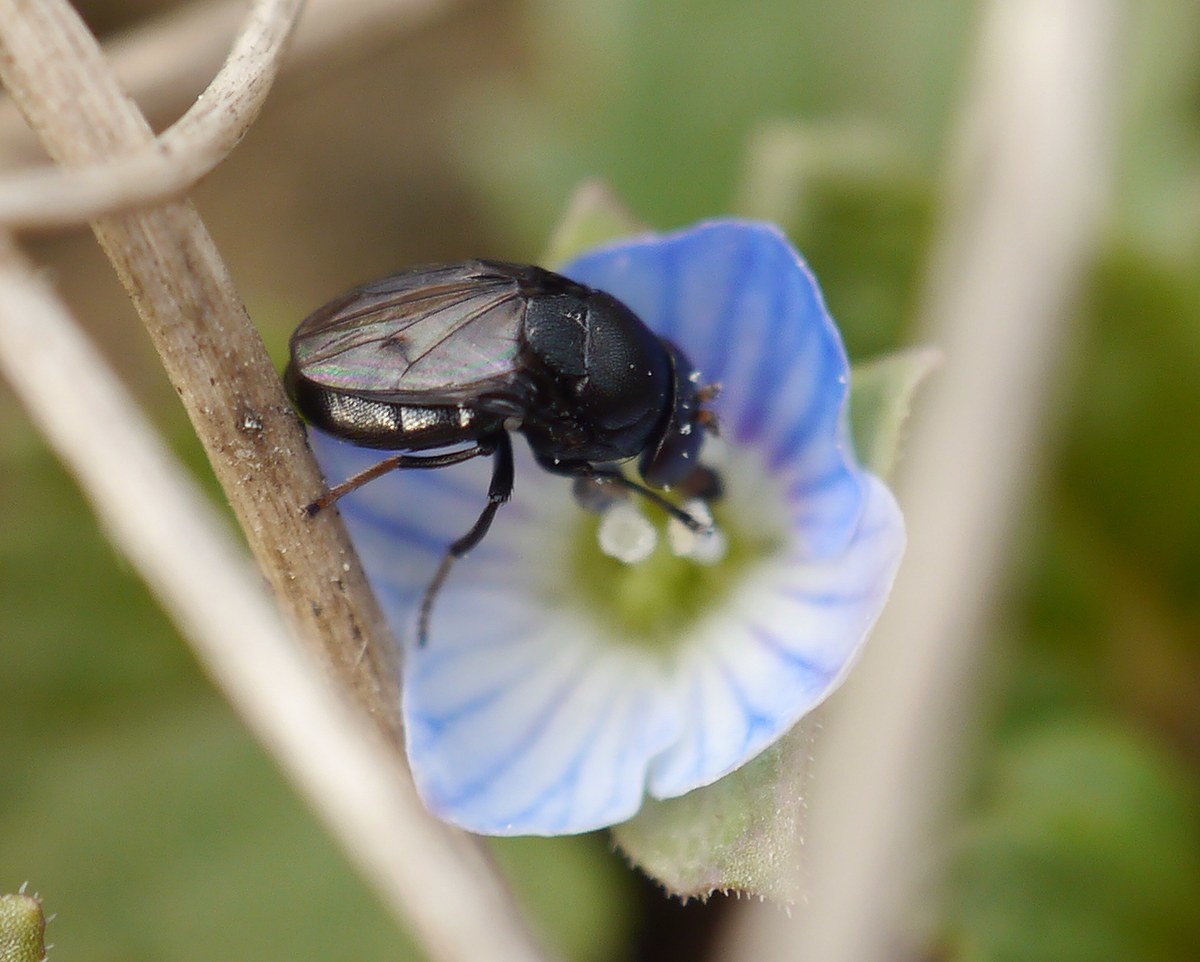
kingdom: Animalia
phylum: Arthropoda
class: Insecta
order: Diptera
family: Ephydridae
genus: Discomyza
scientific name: Discomyza incurva
